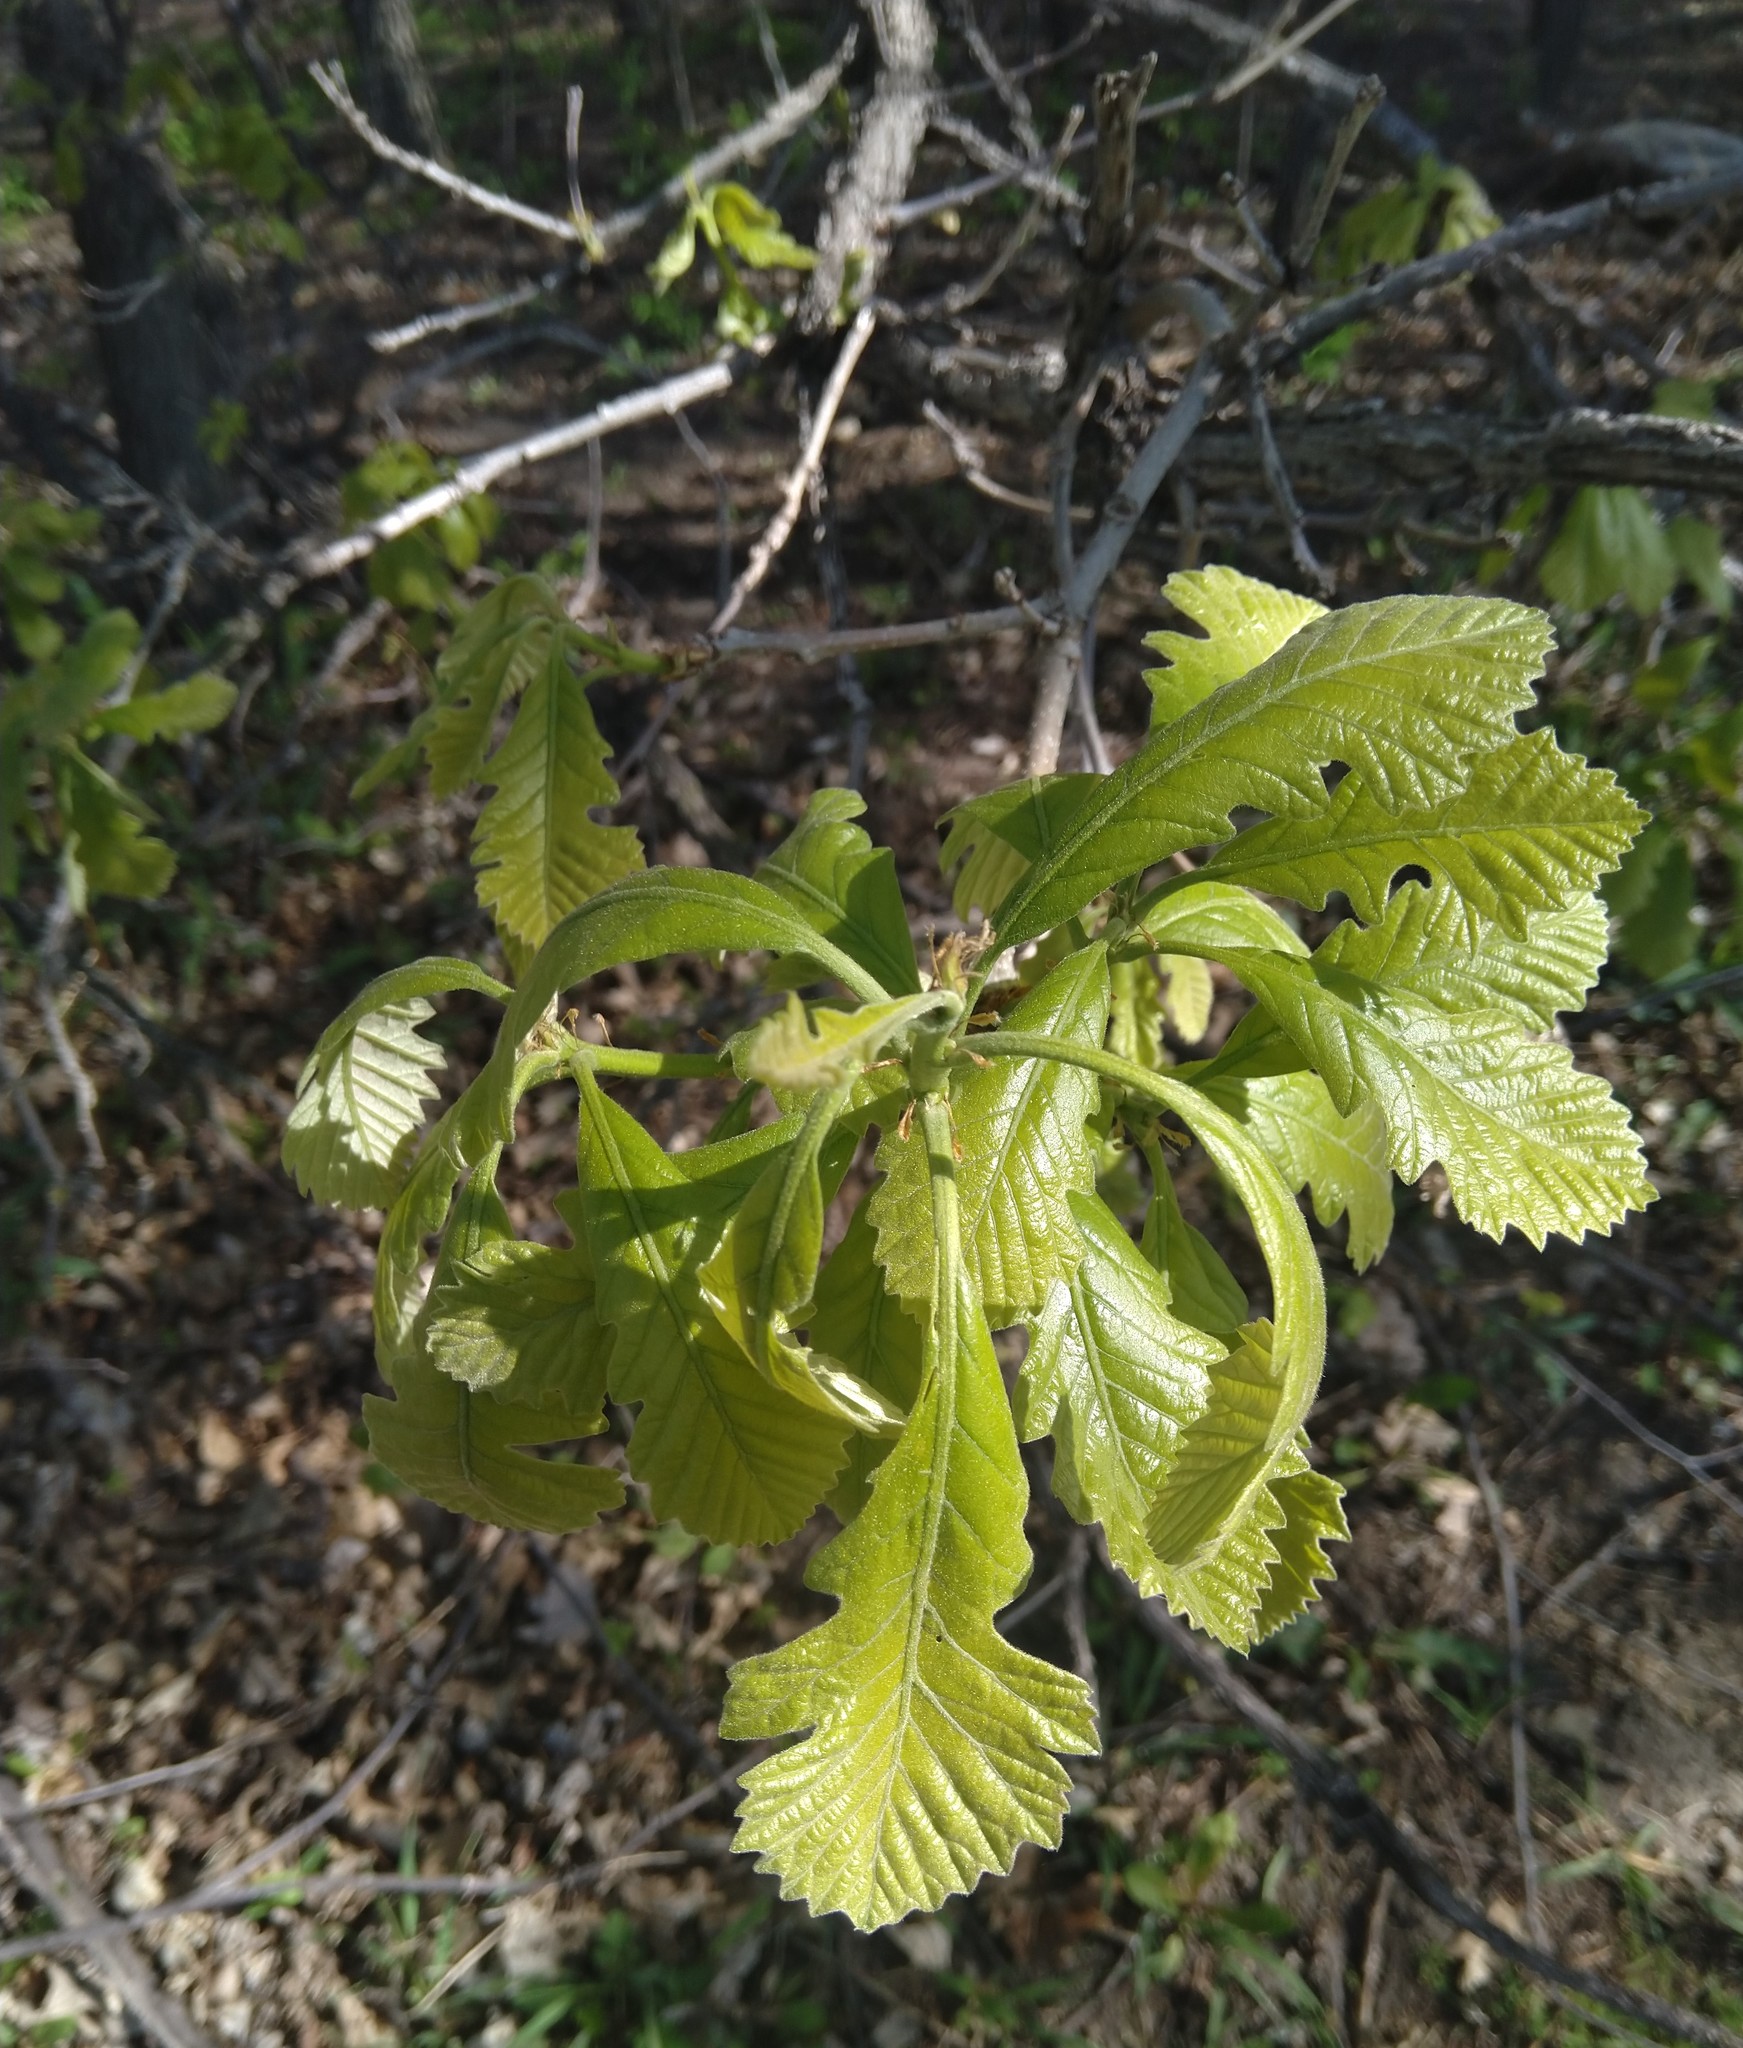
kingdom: Plantae
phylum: Tracheophyta
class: Magnoliopsida
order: Fagales
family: Fagaceae
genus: Quercus
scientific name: Quercus macrocarpa
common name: Bur oak
